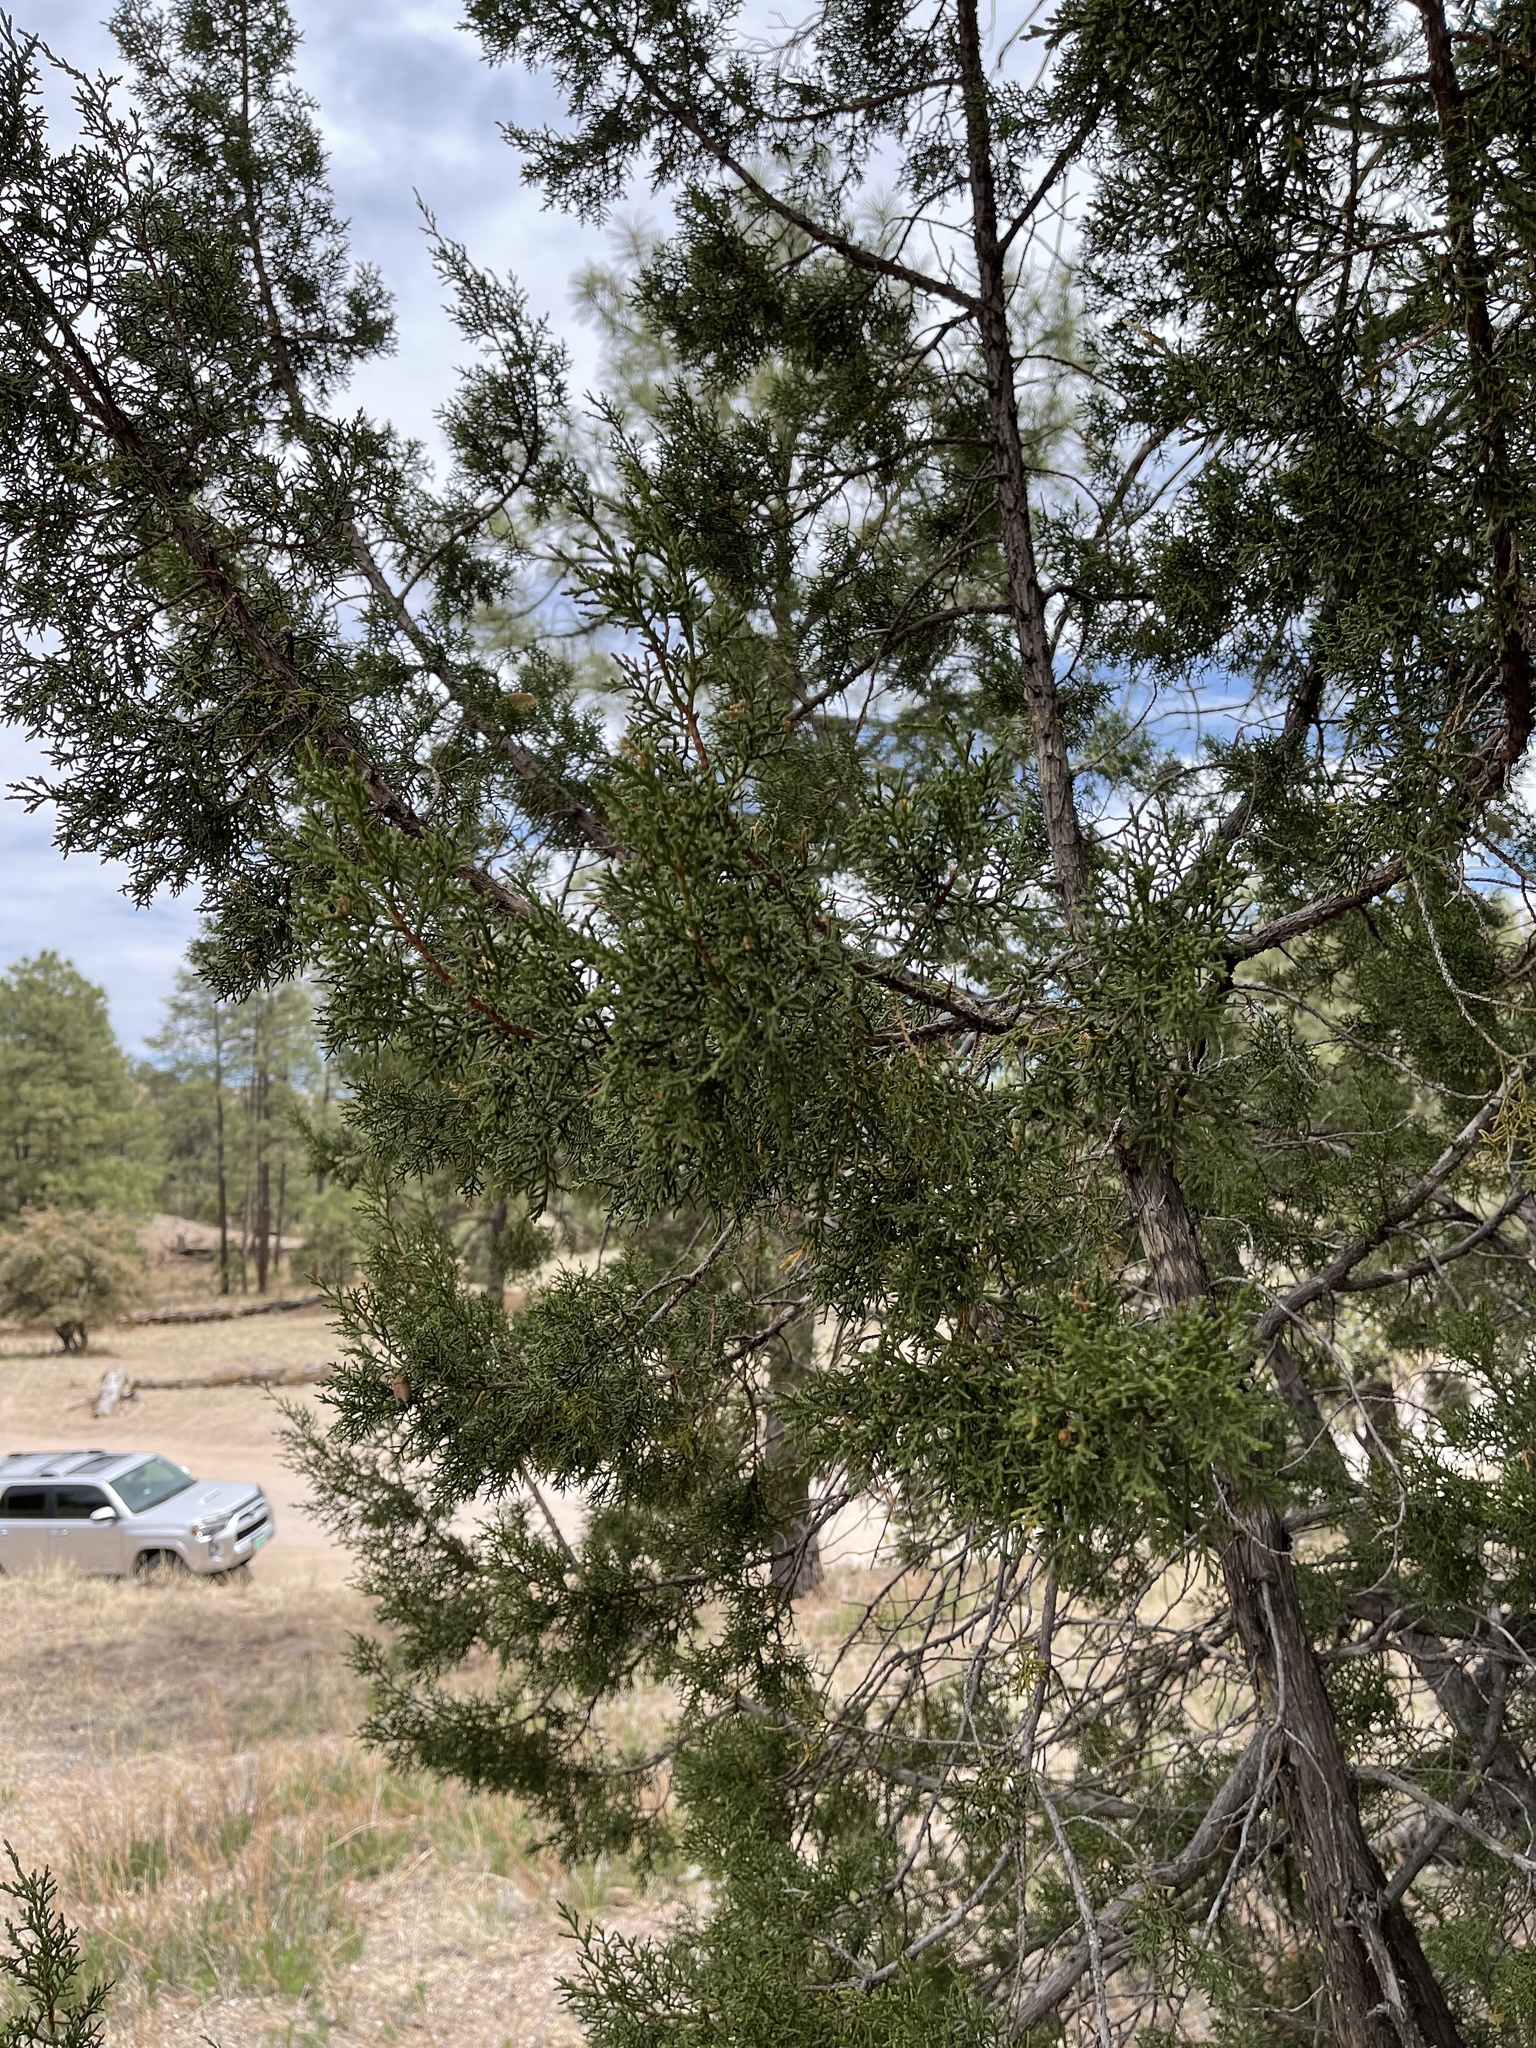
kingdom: Plantae
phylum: Tracheophyta
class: Pinopsida
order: Pinales
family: Cupressaceae
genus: Juniperus
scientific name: Juniperus monosperma
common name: One-seed juniper
